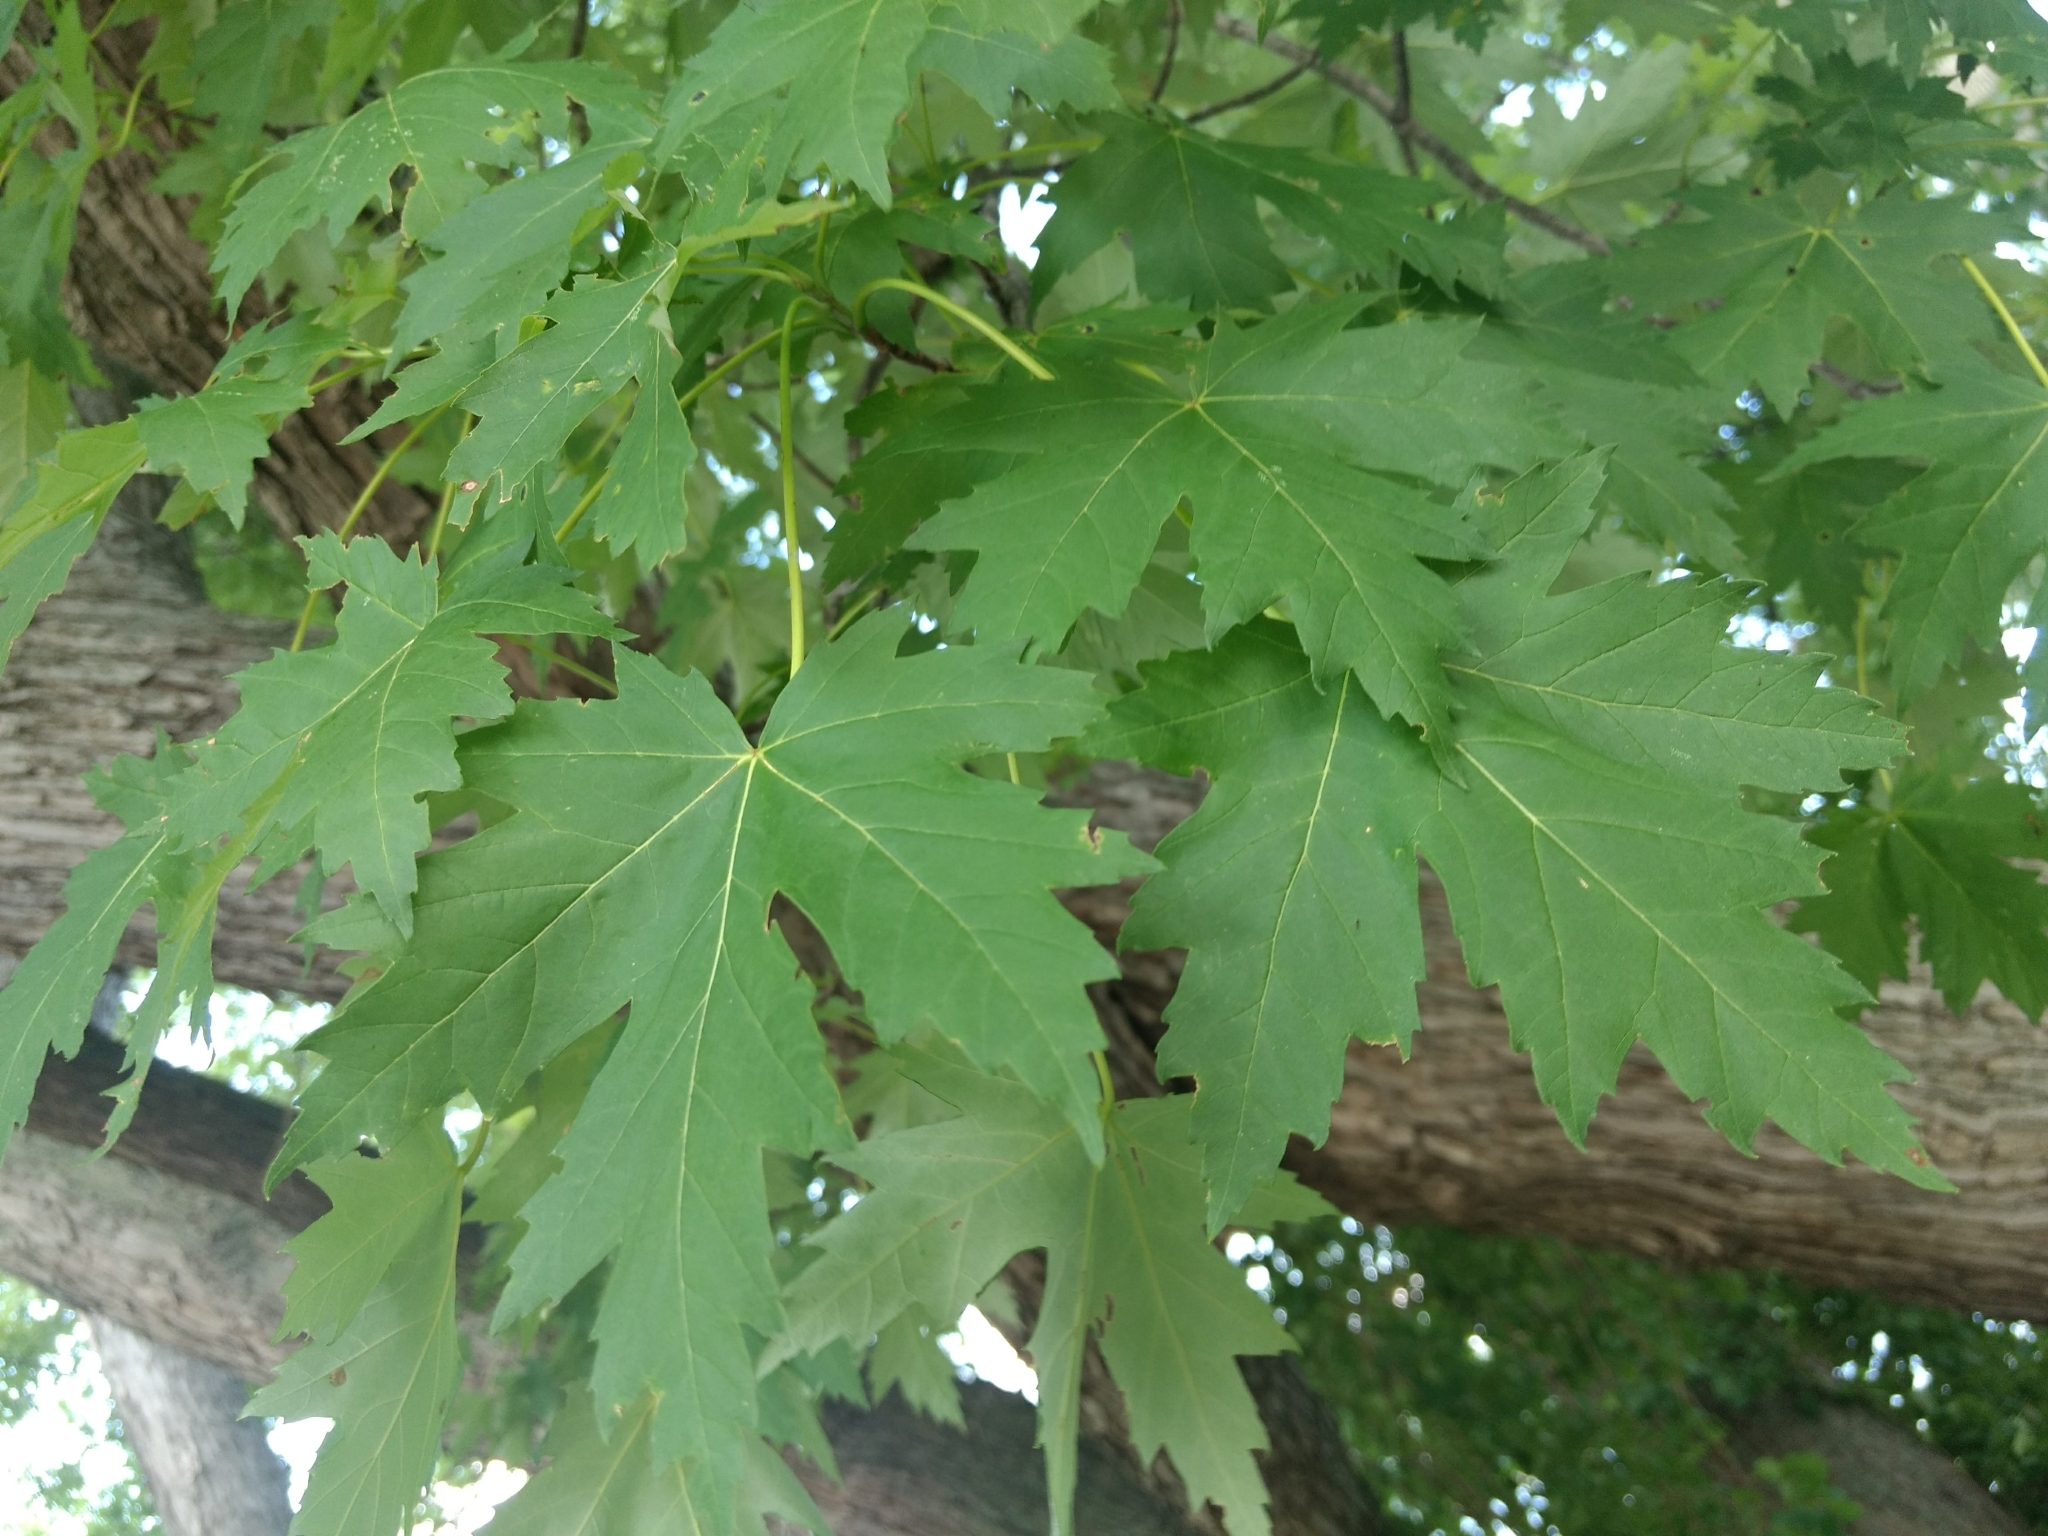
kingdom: Plantae
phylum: Tracheophyta
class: Magnoliopsida
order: Sapindales
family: Sapindaceae
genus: Acer
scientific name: Acer saccharinum
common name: Silver maple
